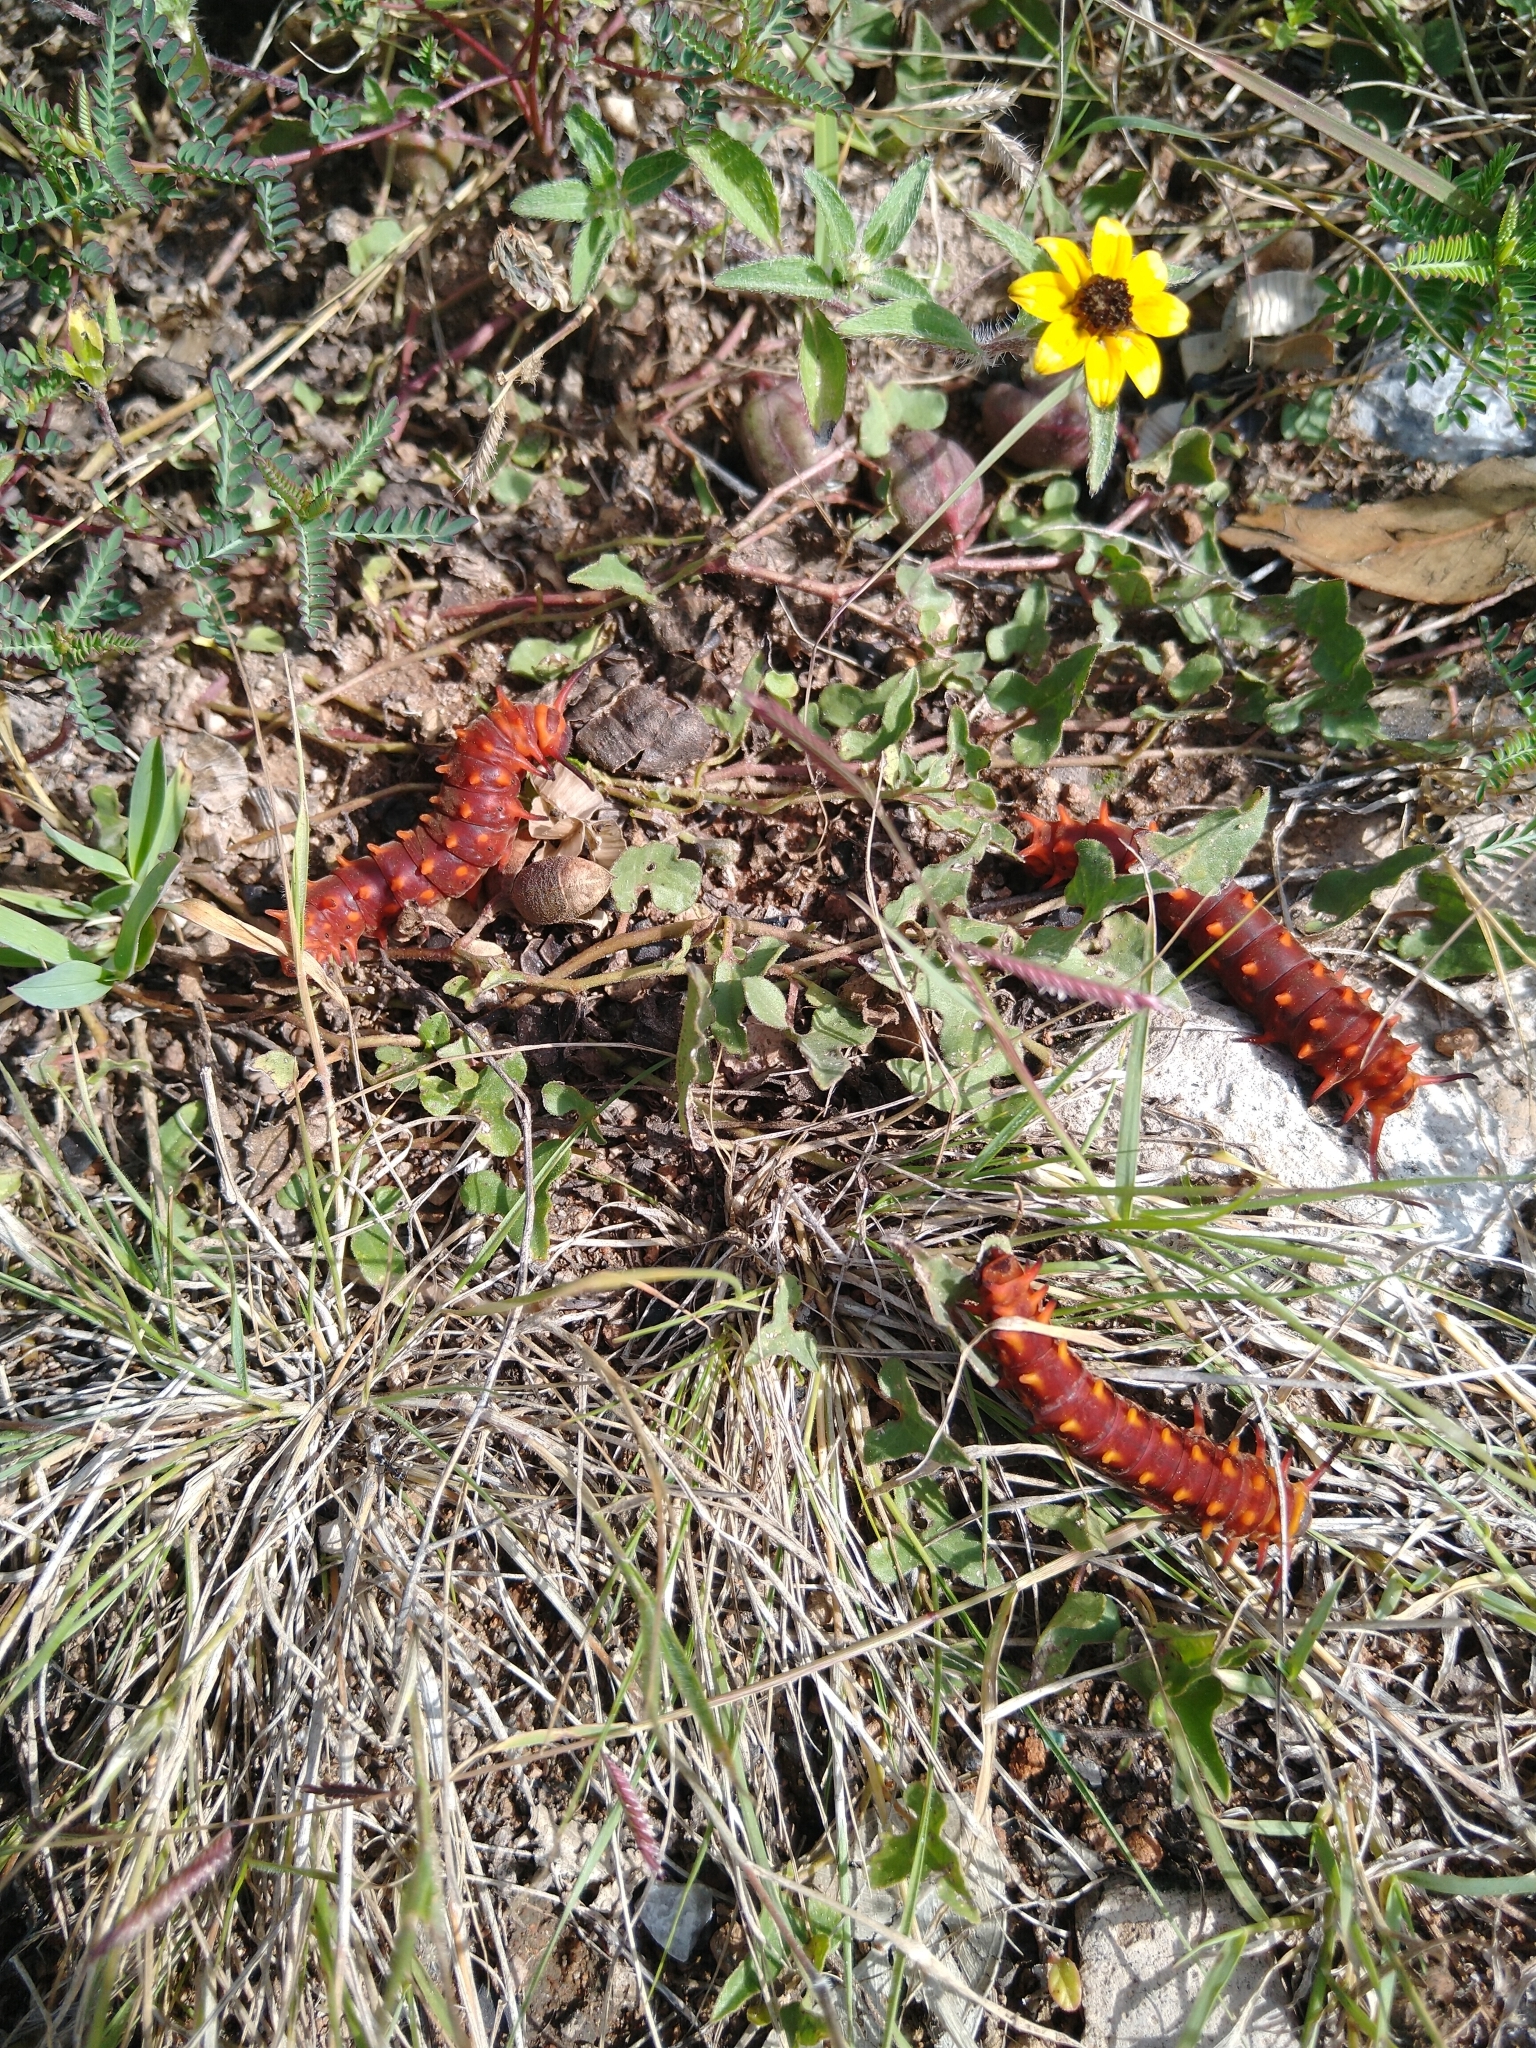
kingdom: Animalia
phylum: Arthropoda
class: Insecta
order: Lepidoptera
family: Papilionidae
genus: Battus
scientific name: Battus philenor
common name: Pipevine swallowtail
